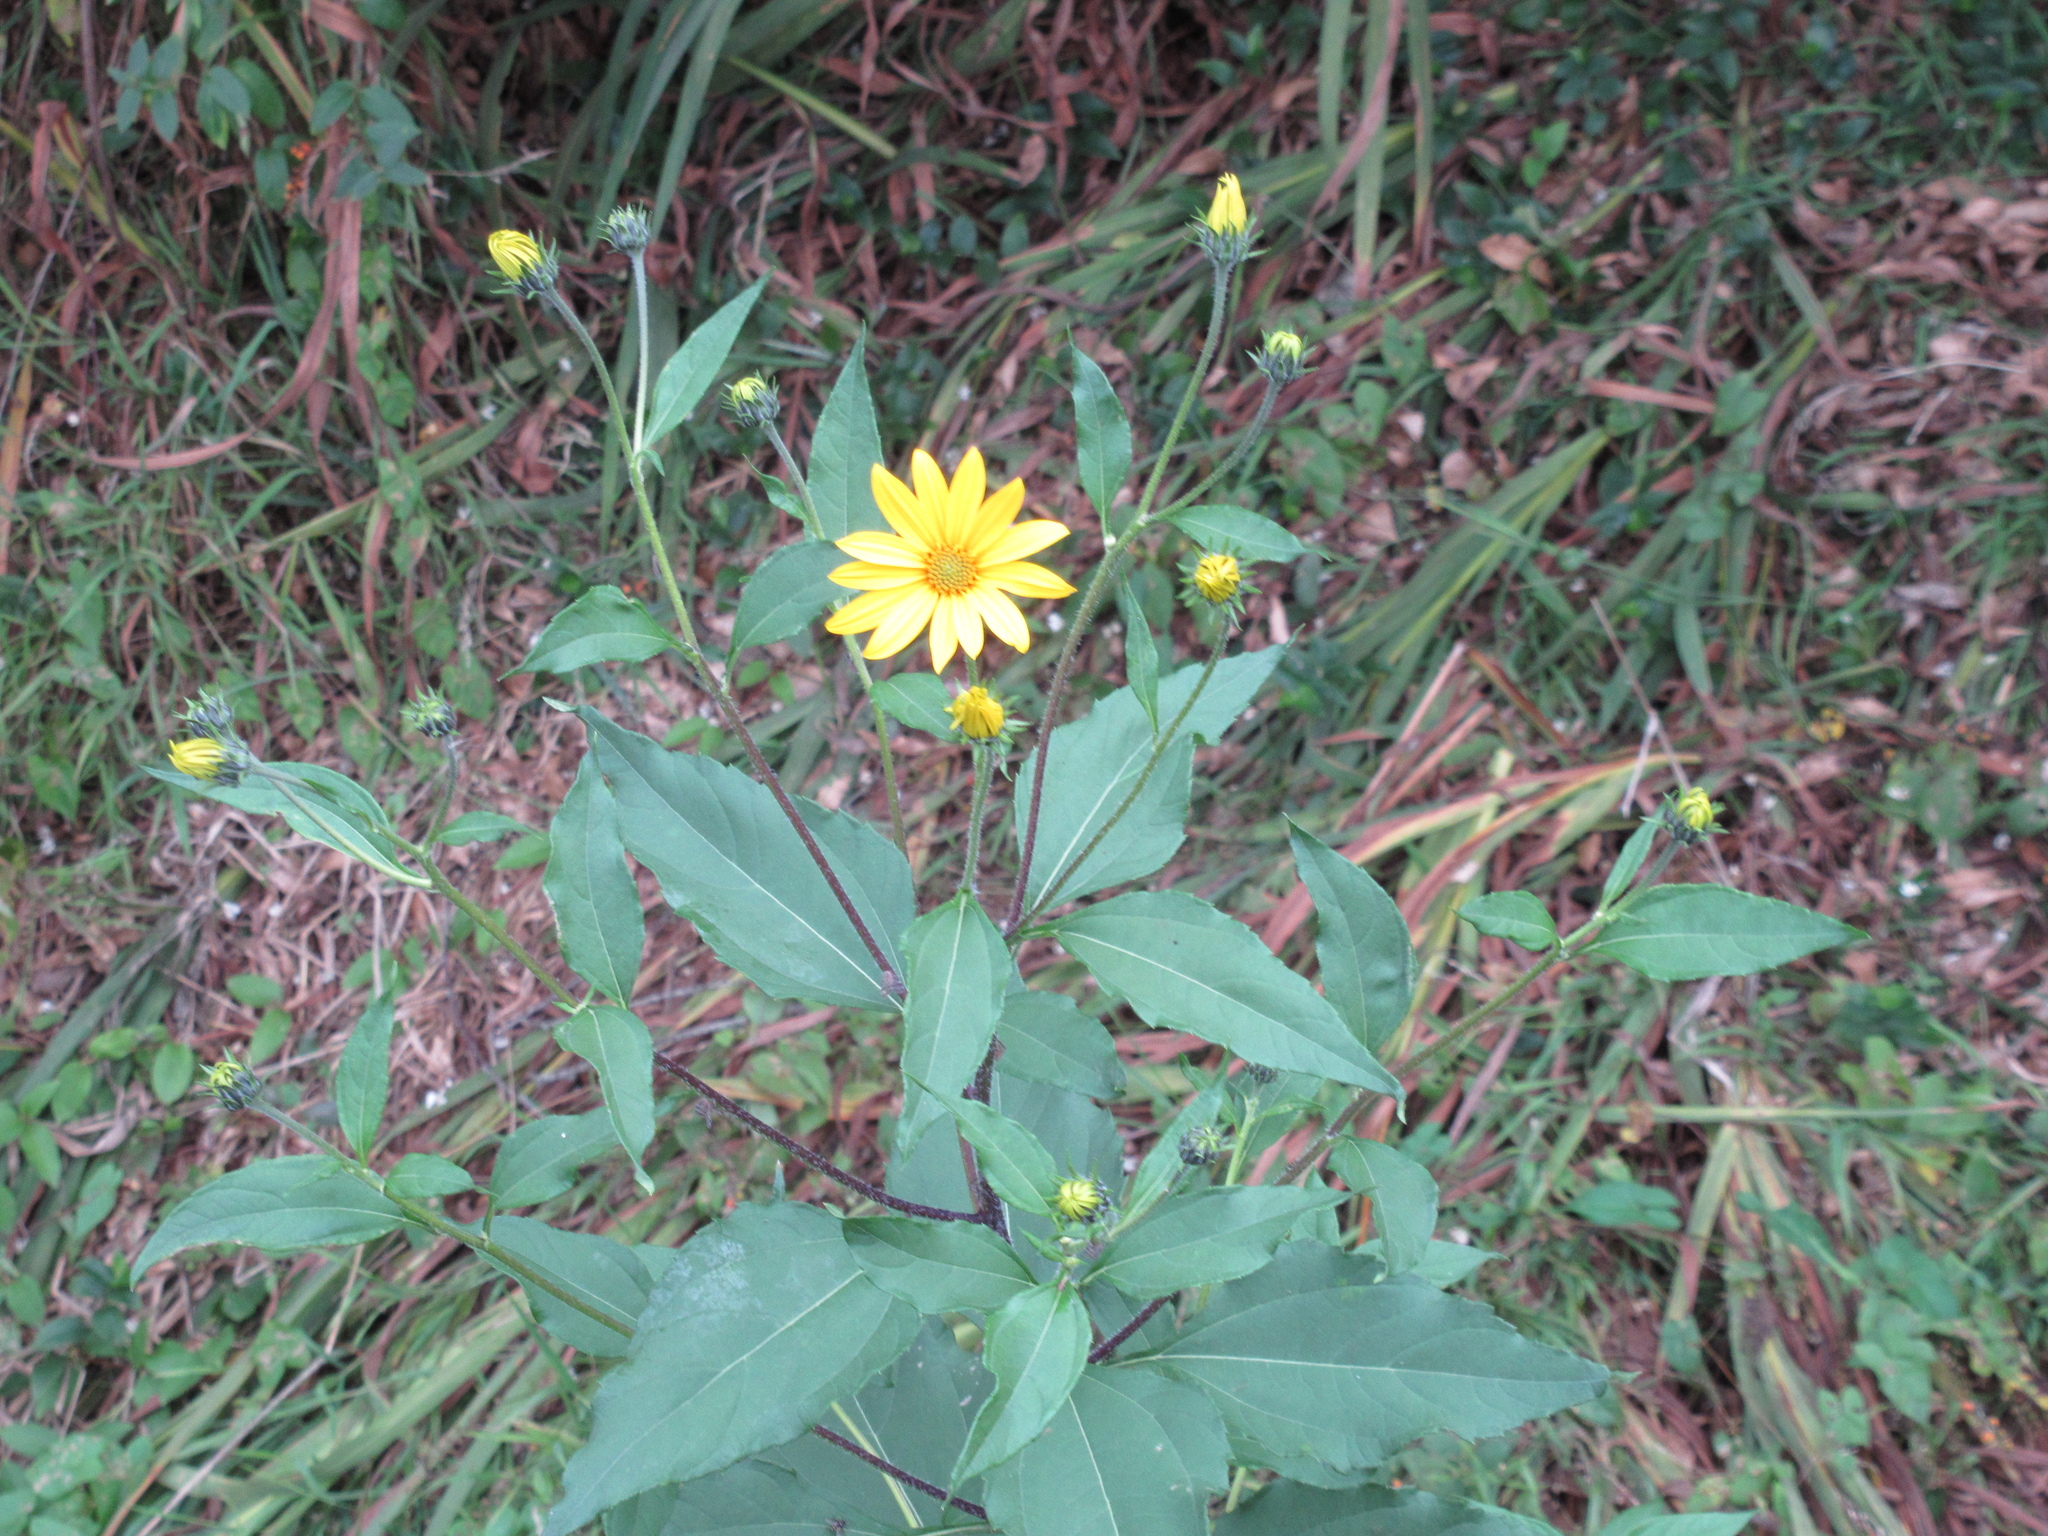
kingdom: Plantae
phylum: Tracheophyta
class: Magnoliopsida
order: Asterales
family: Asteraceae
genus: Helianthus
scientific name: Helianthus tuberosus
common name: Jerusalem artichoke
